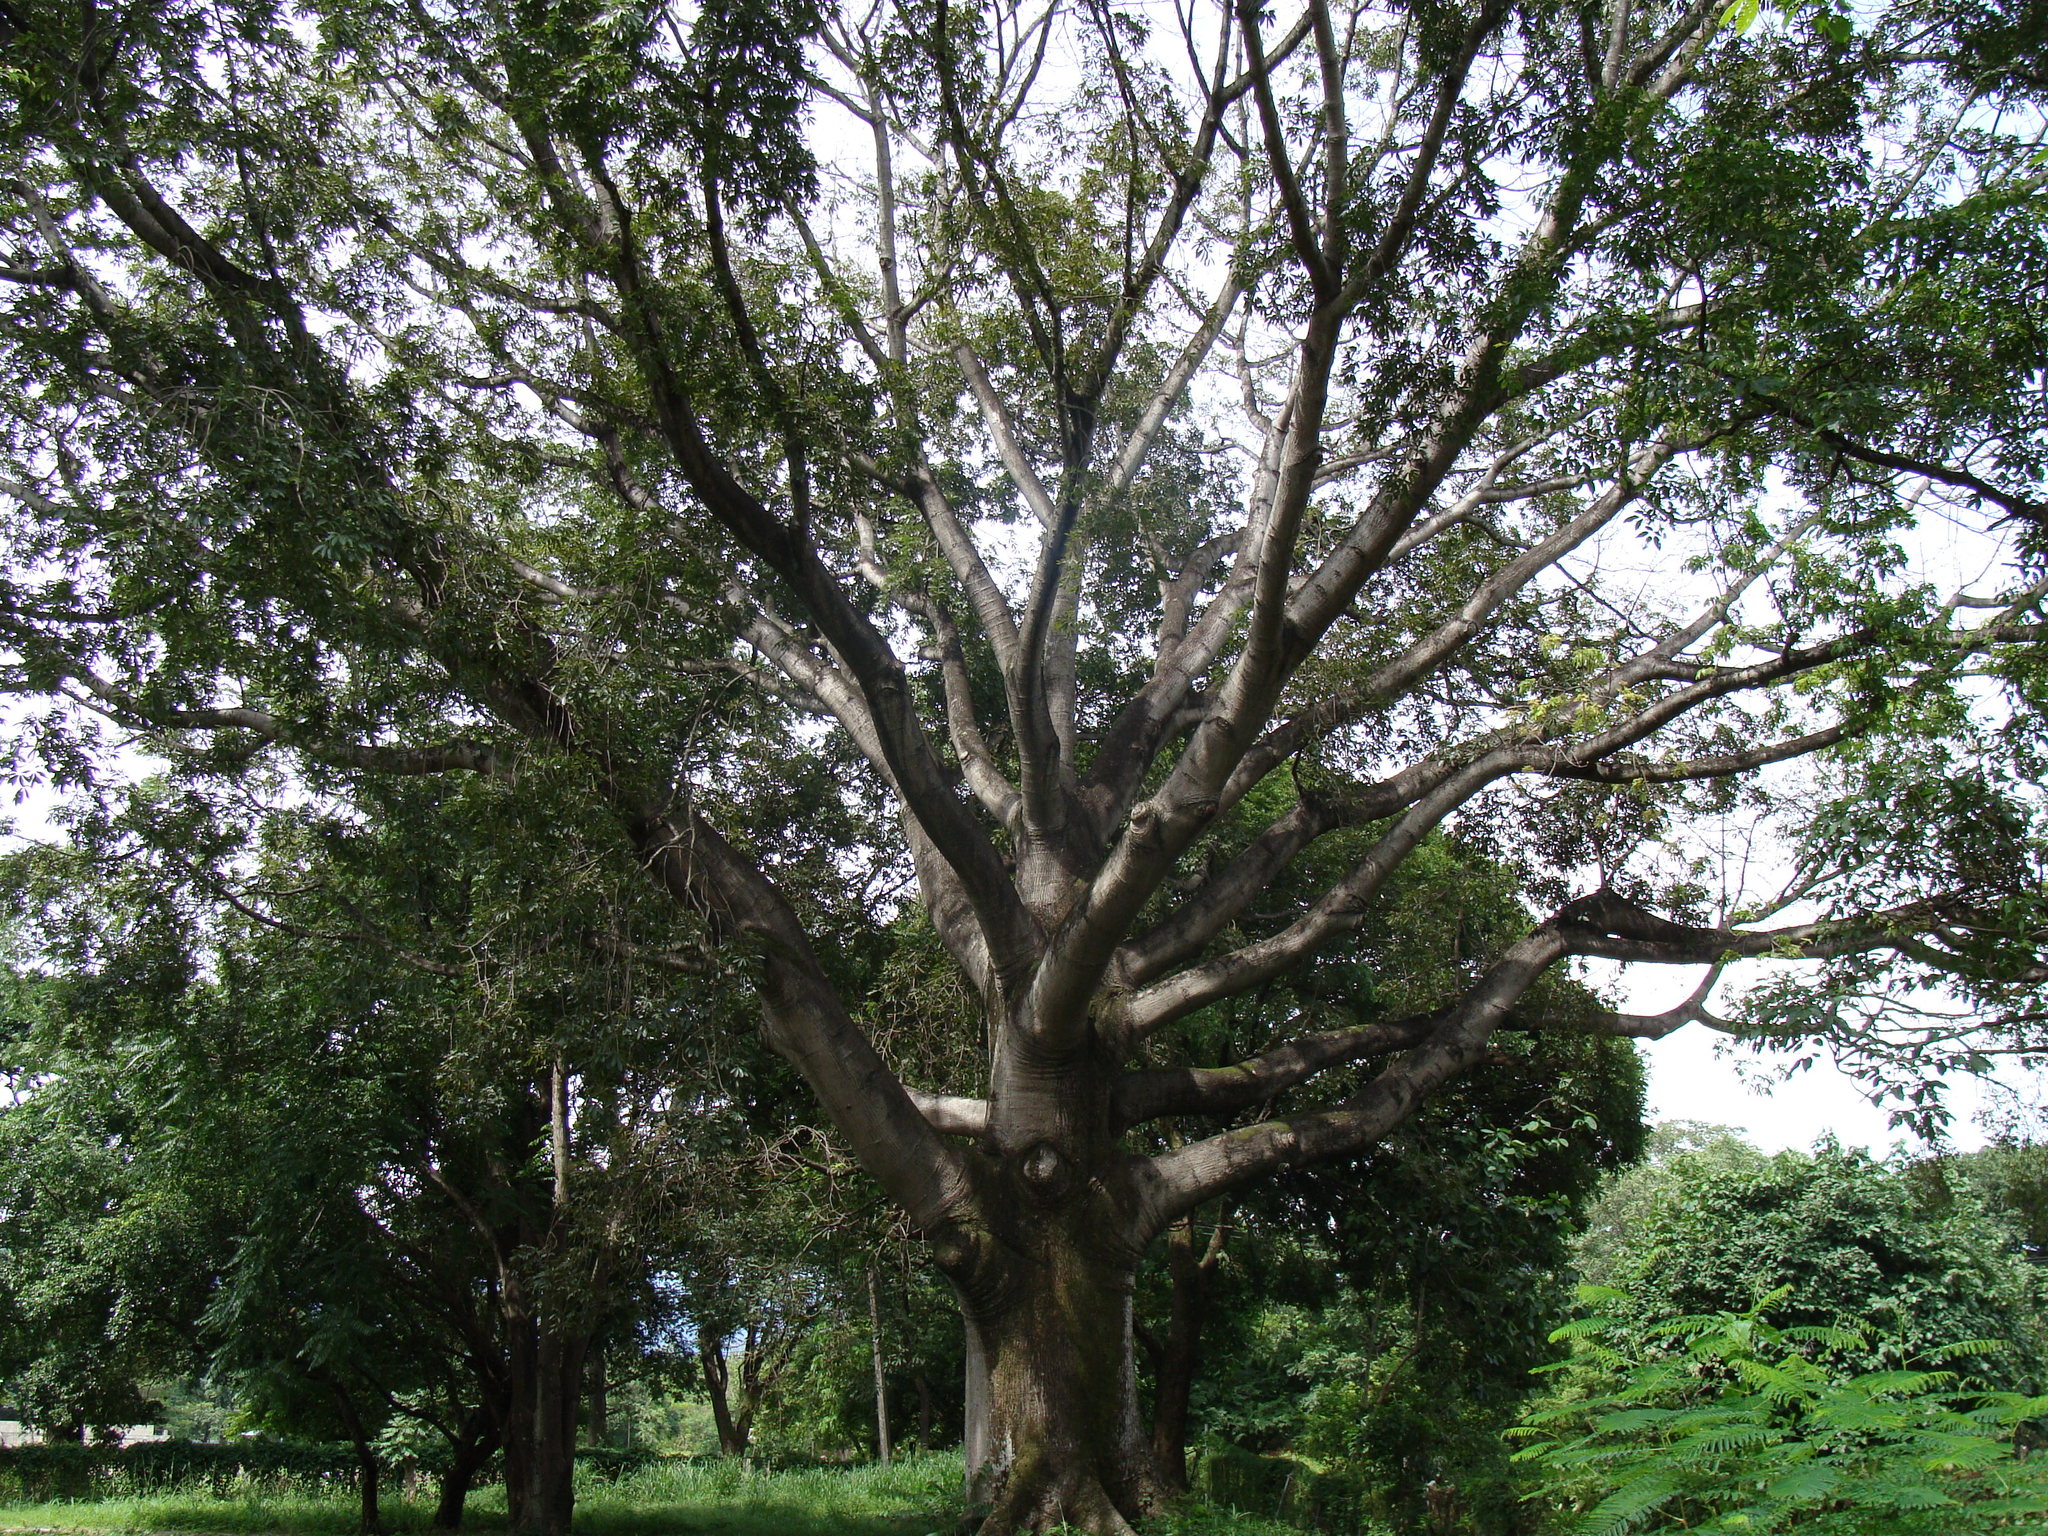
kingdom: Plantae
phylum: Tracheophyta
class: Magnoliopsida
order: Malvales
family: Malvaceae
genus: Ceiba
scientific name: Ceiba pentandra
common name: Kapok
